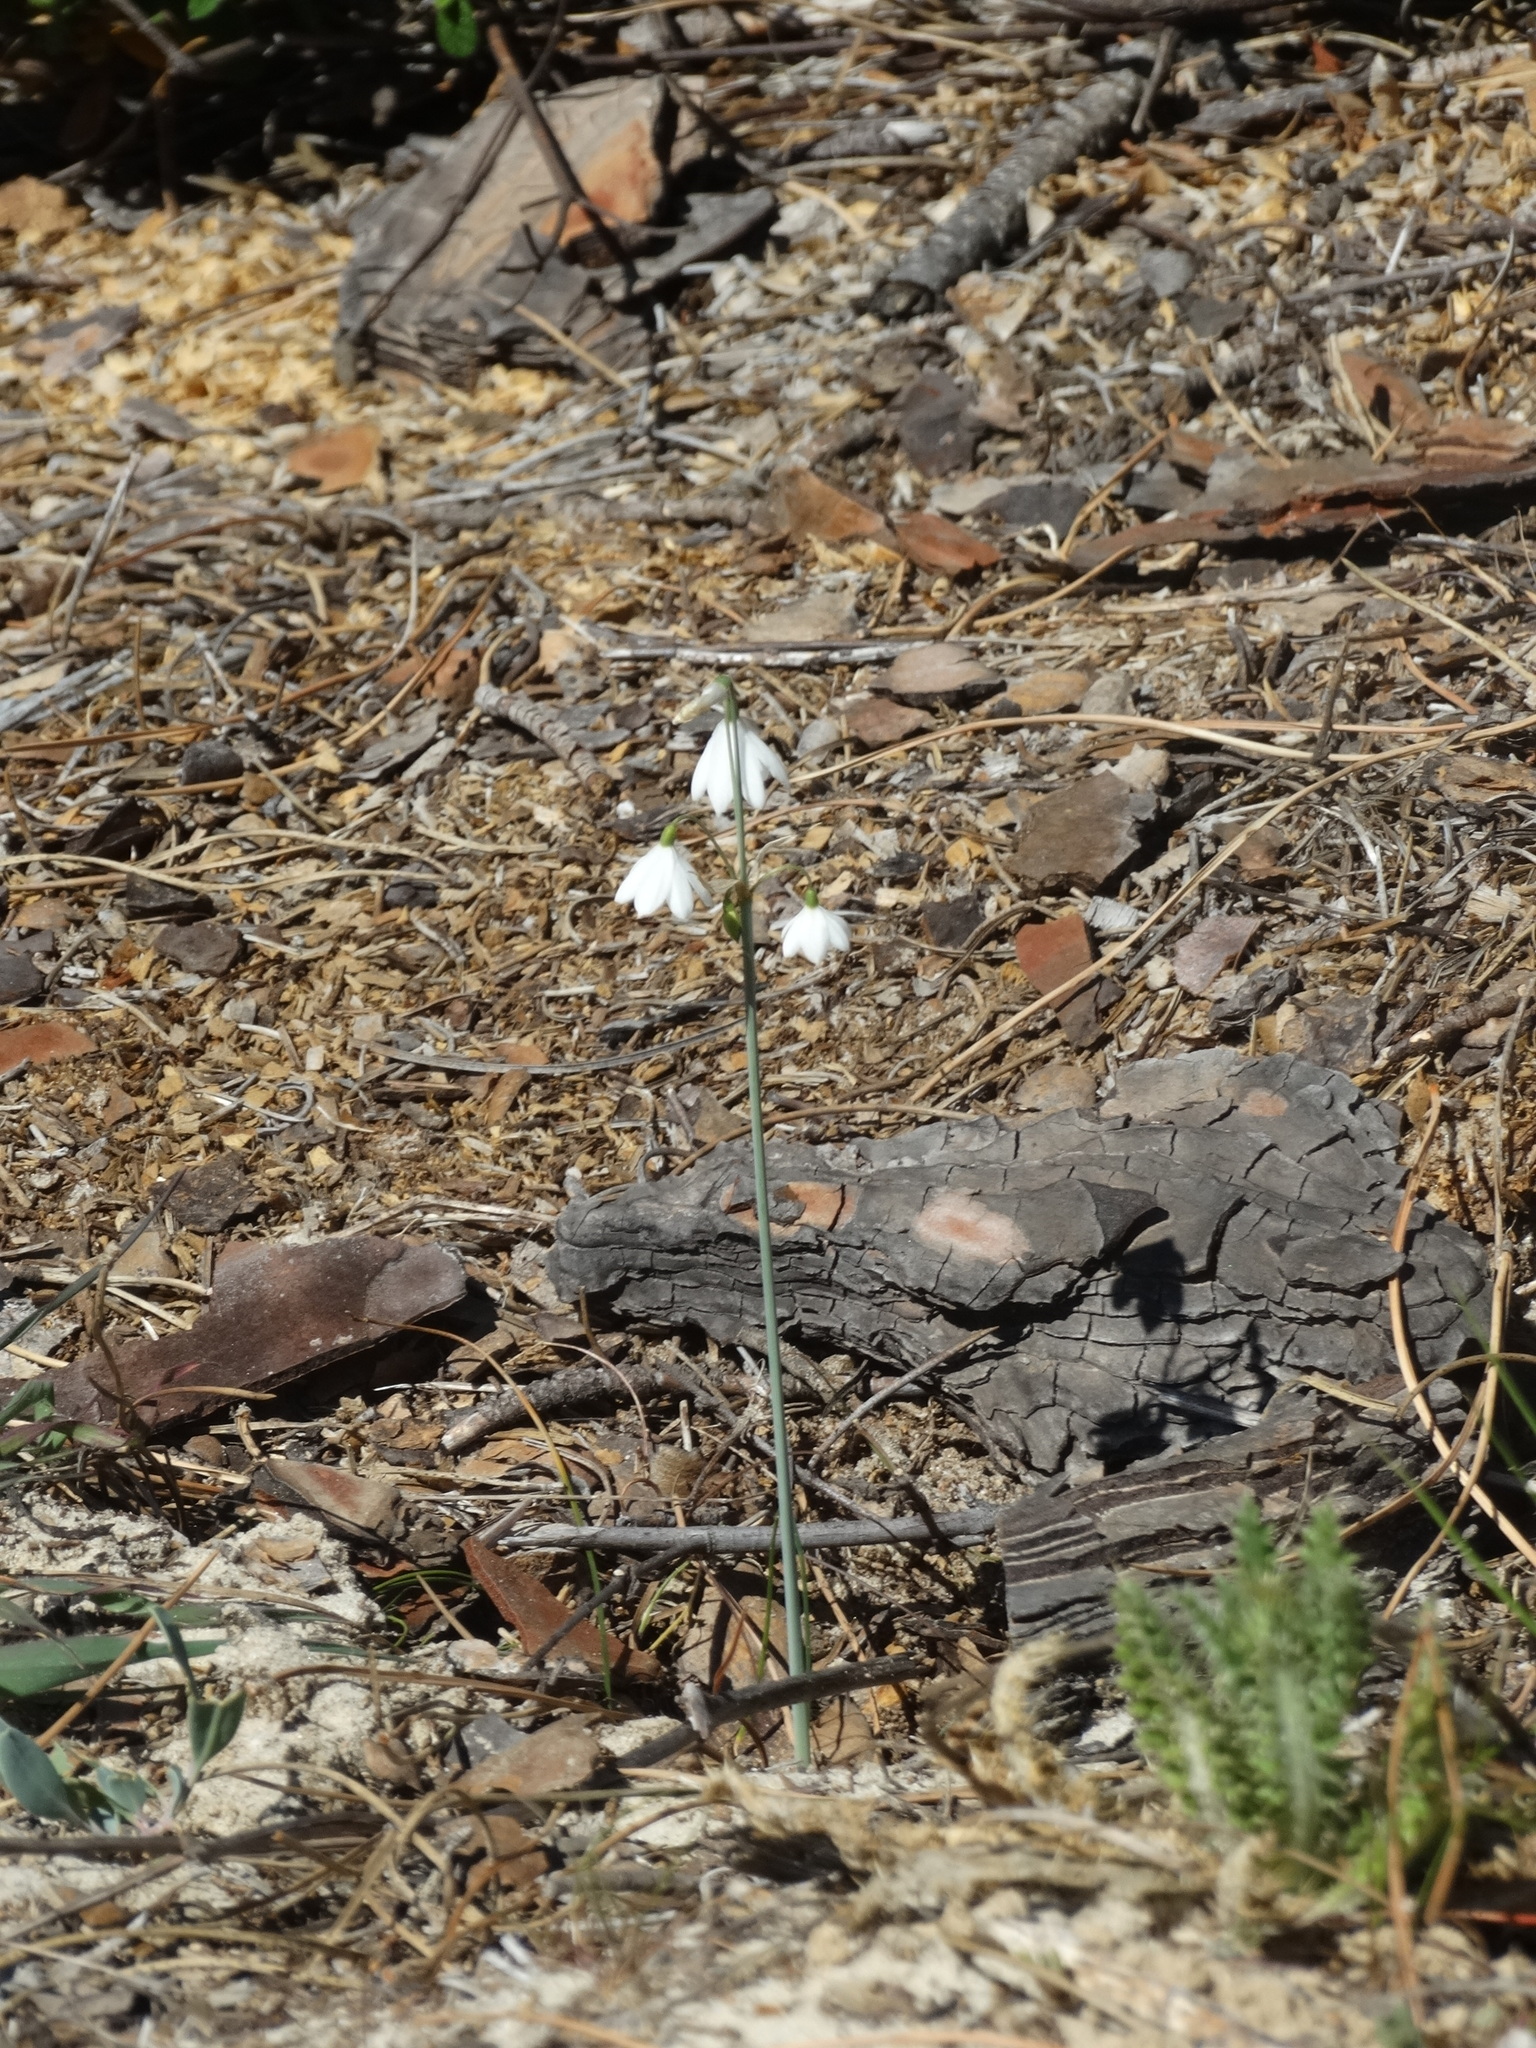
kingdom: Plantae
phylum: Tracheophyta
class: Liliopsida
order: Asparagales
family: Amaryllidaceae
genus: Acis
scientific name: Acis trichophylla
